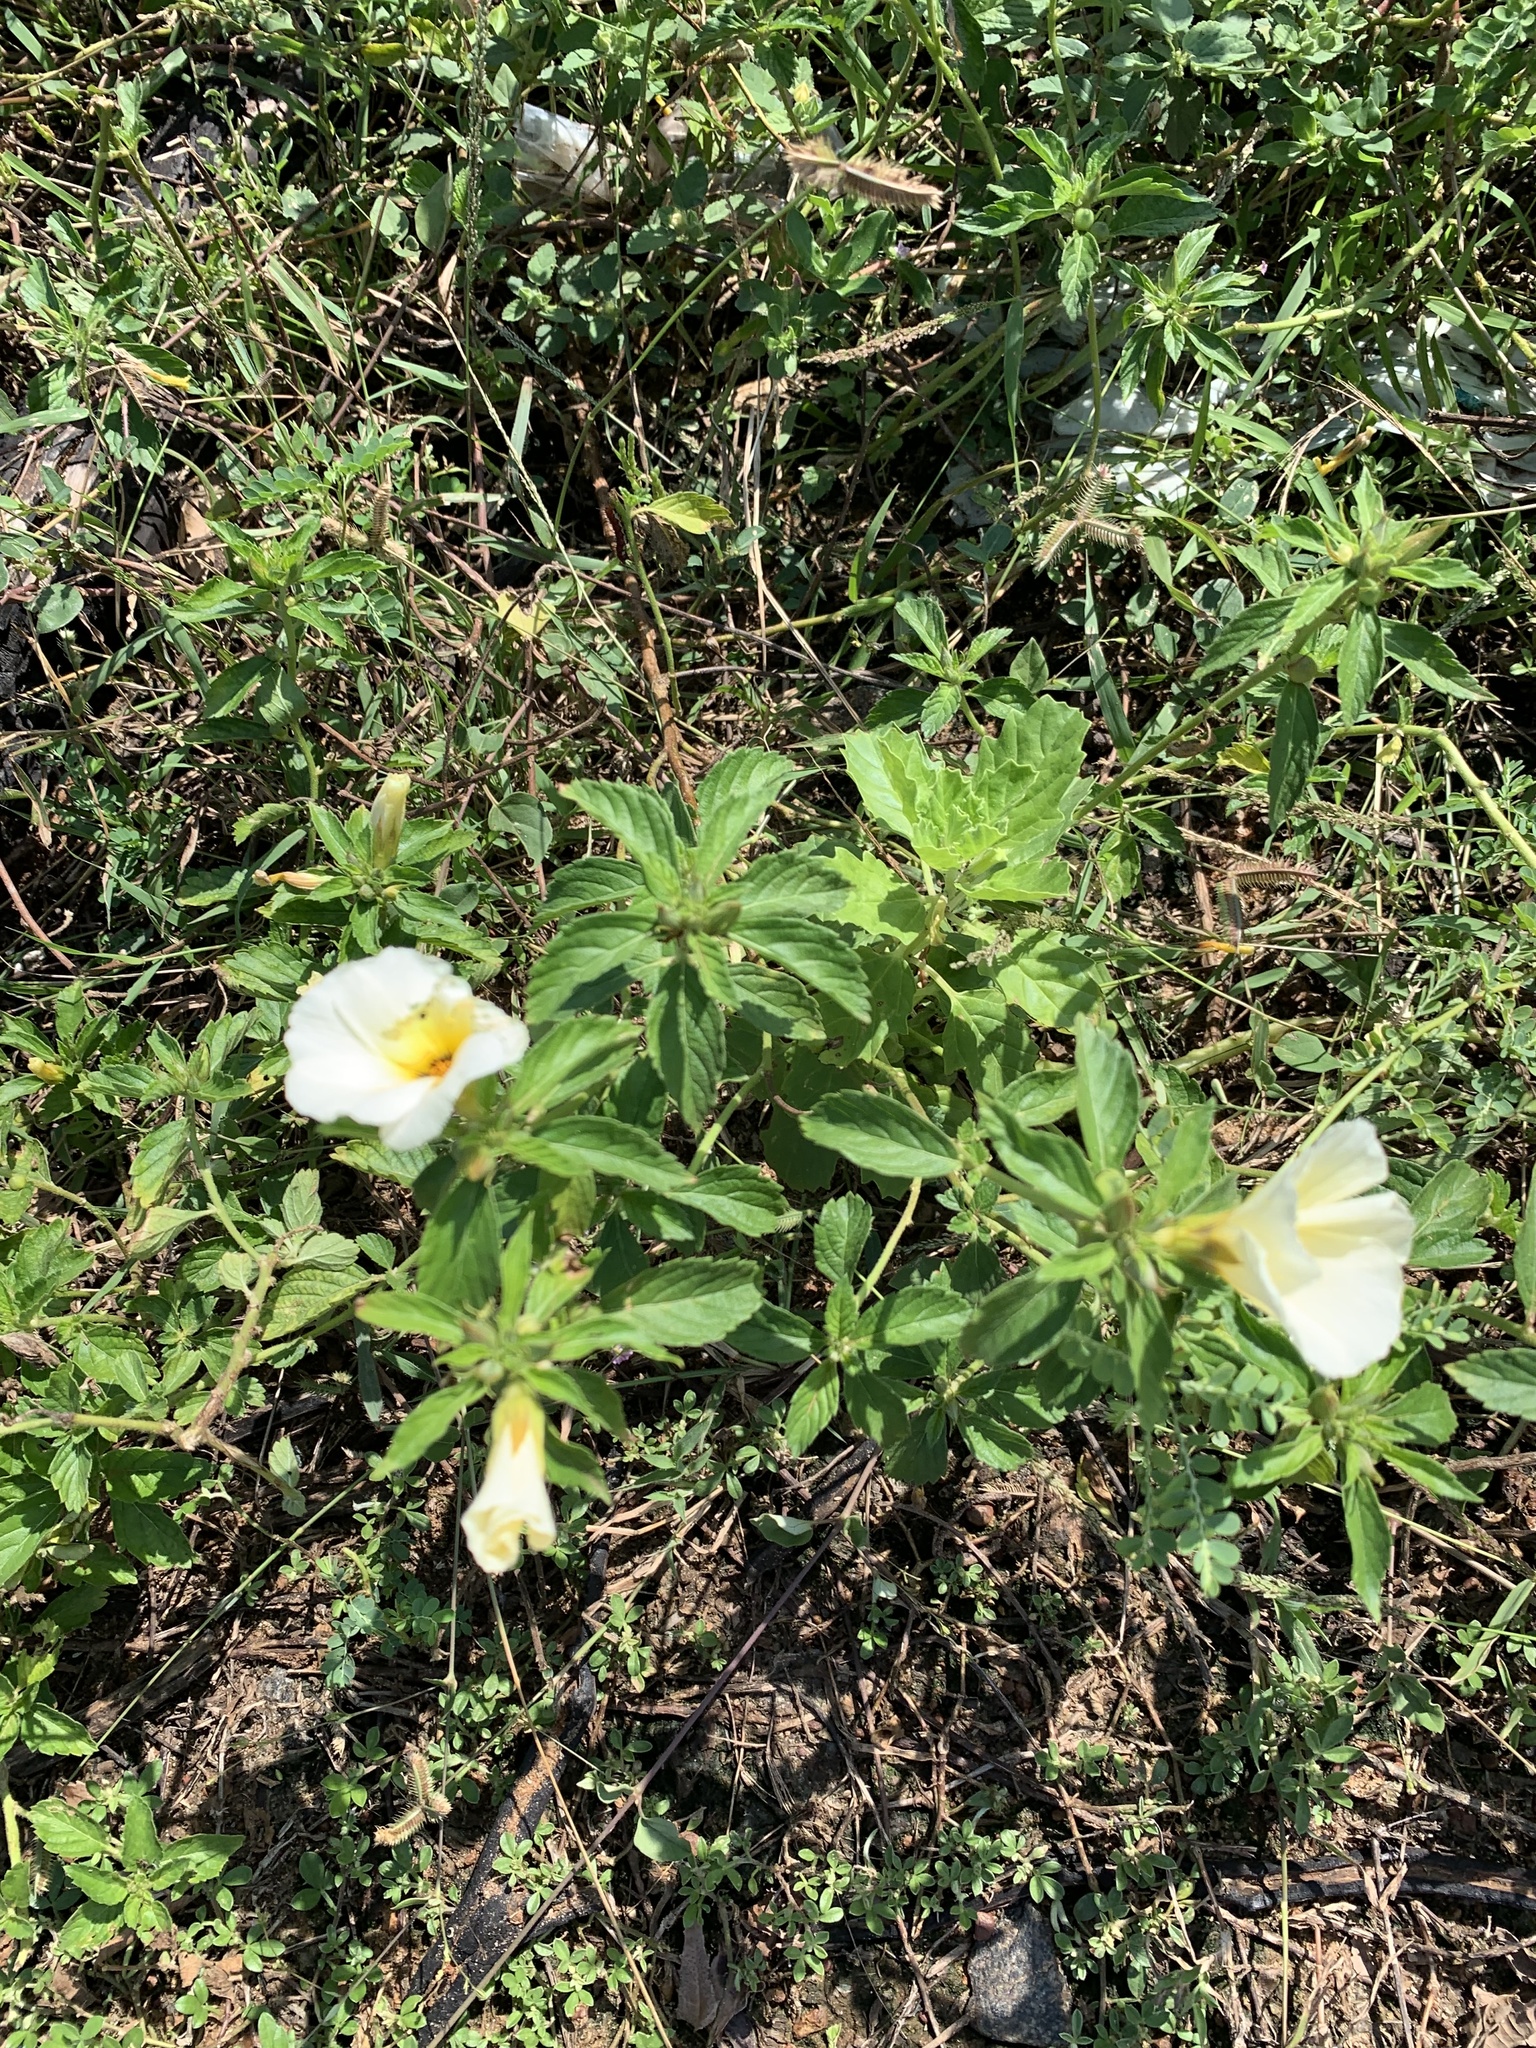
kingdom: Plantae
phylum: Tracheophyta
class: Magnoliopsida
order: Malpighiales
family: Turneraceae
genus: Turnera
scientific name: Turnera subulata
